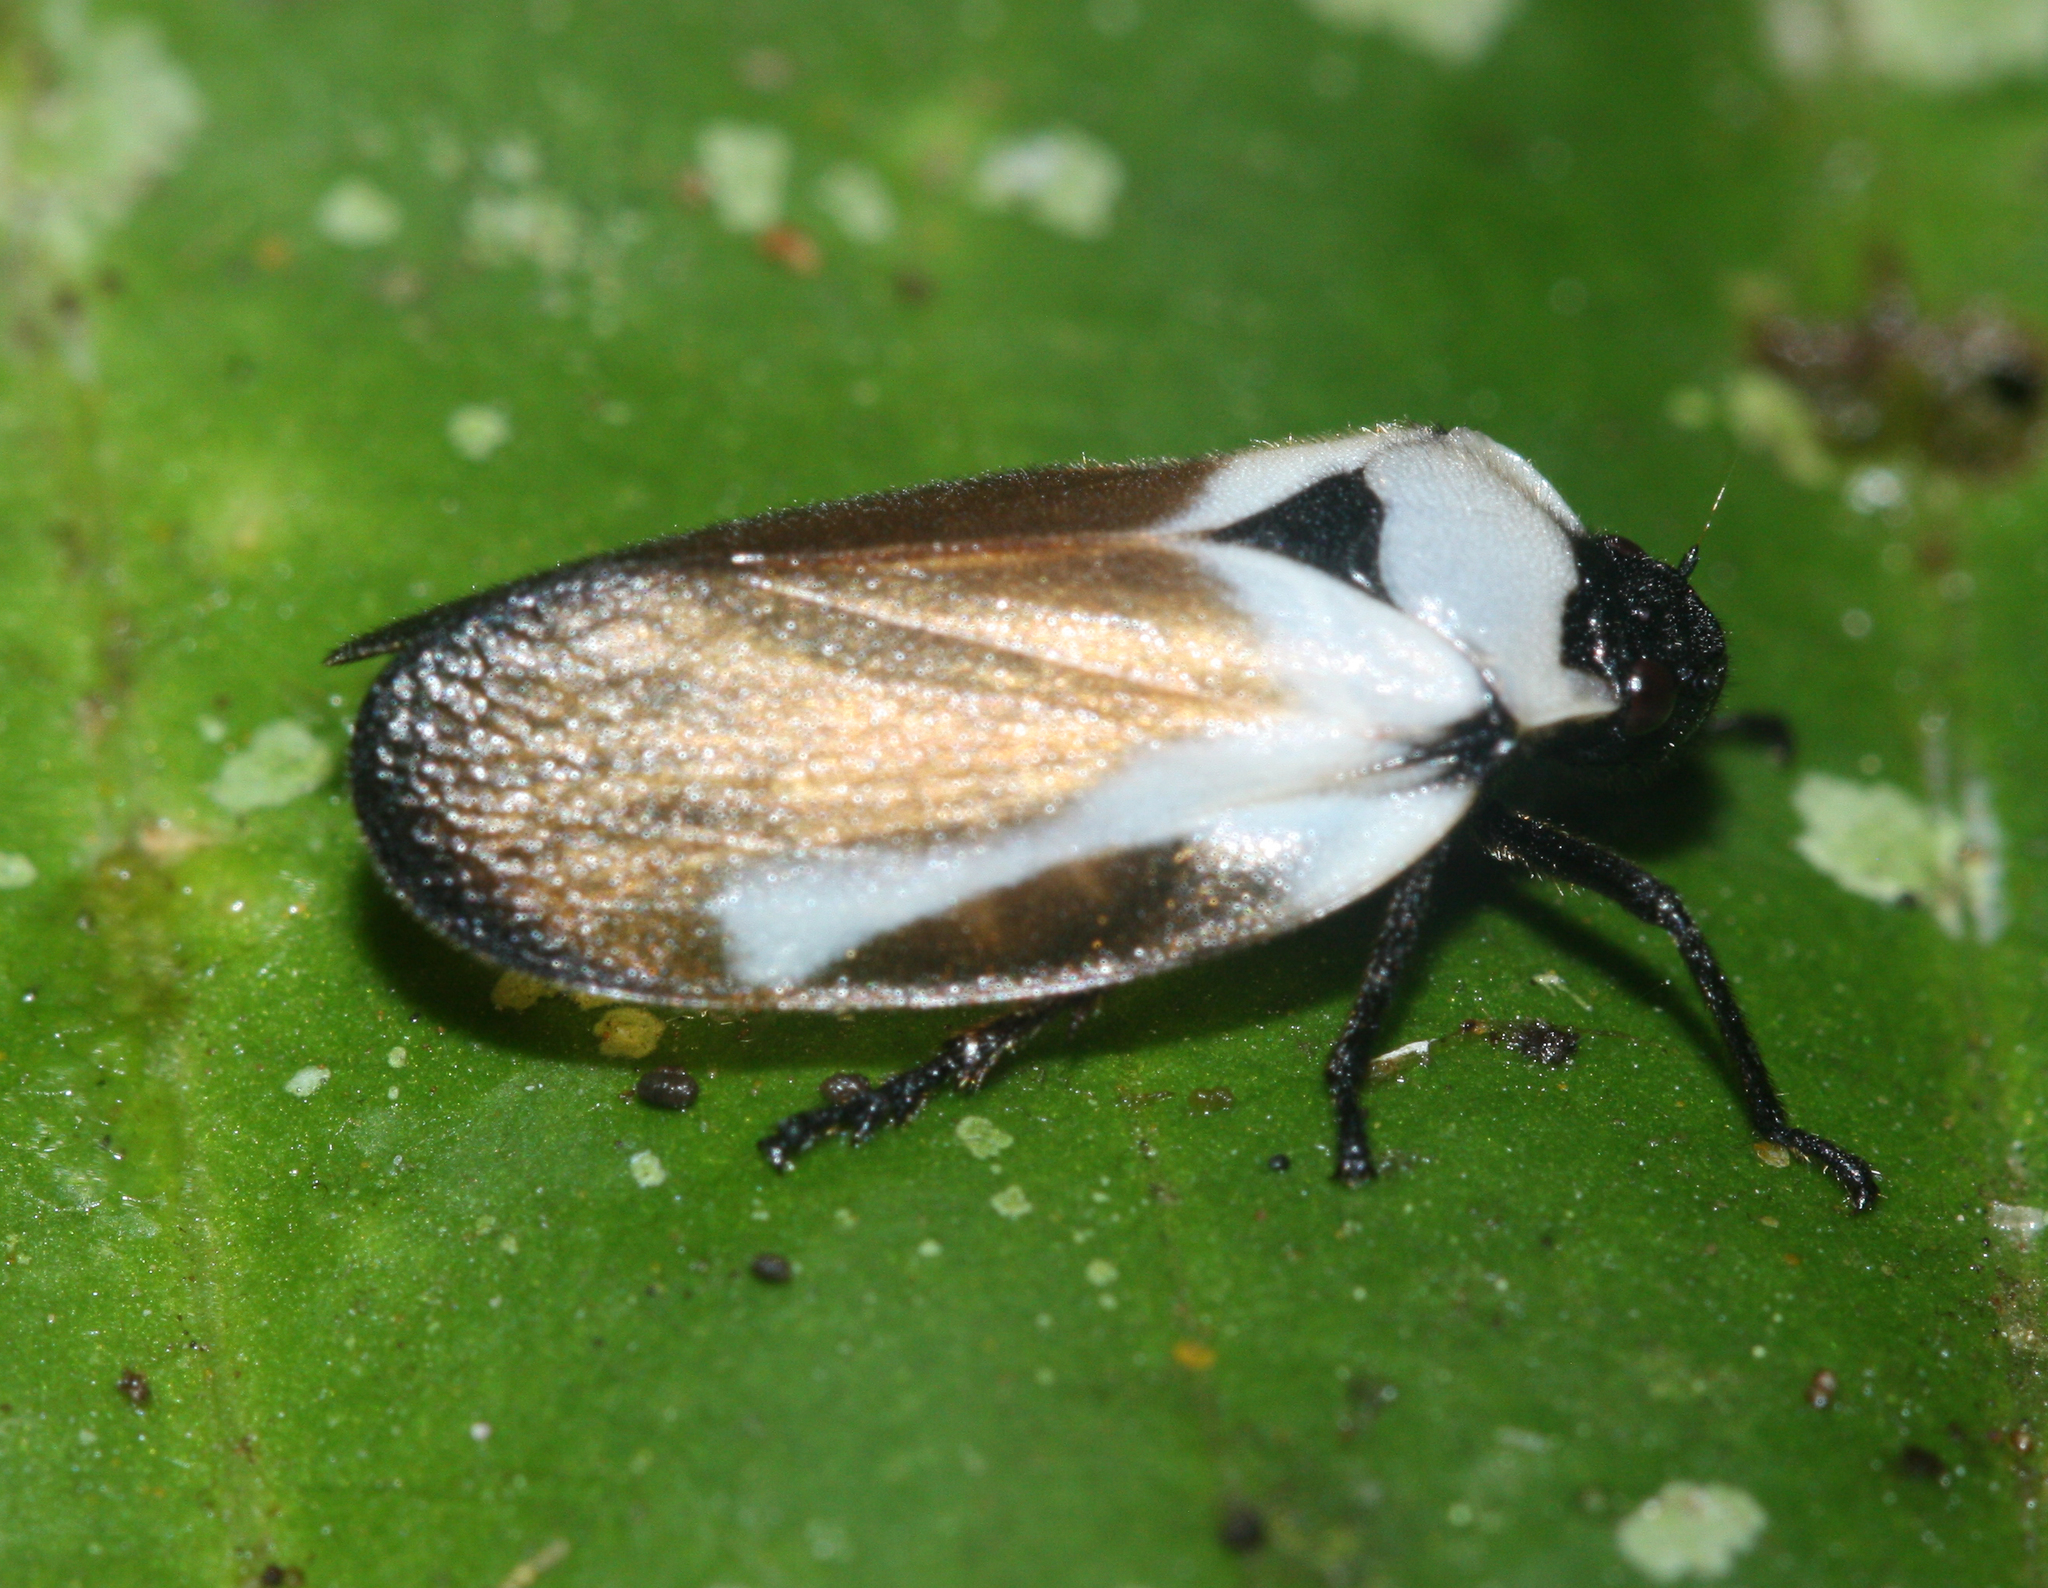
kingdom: Animalia
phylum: Arthropoda
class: Insecta
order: Hemiptera
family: Cercopidae
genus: Sphenorhina
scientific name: Sphenorhina quadrifera
